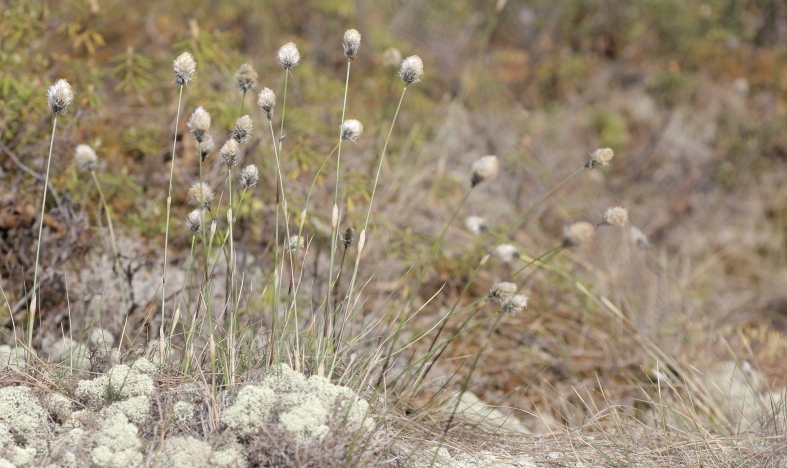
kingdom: Plantae
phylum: Tracheophyta
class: Liliopsida
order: Poales
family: Cyperaceae
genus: Eriophorum
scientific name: Eriophorum vaginatum
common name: Hare's-tail cottongrass
